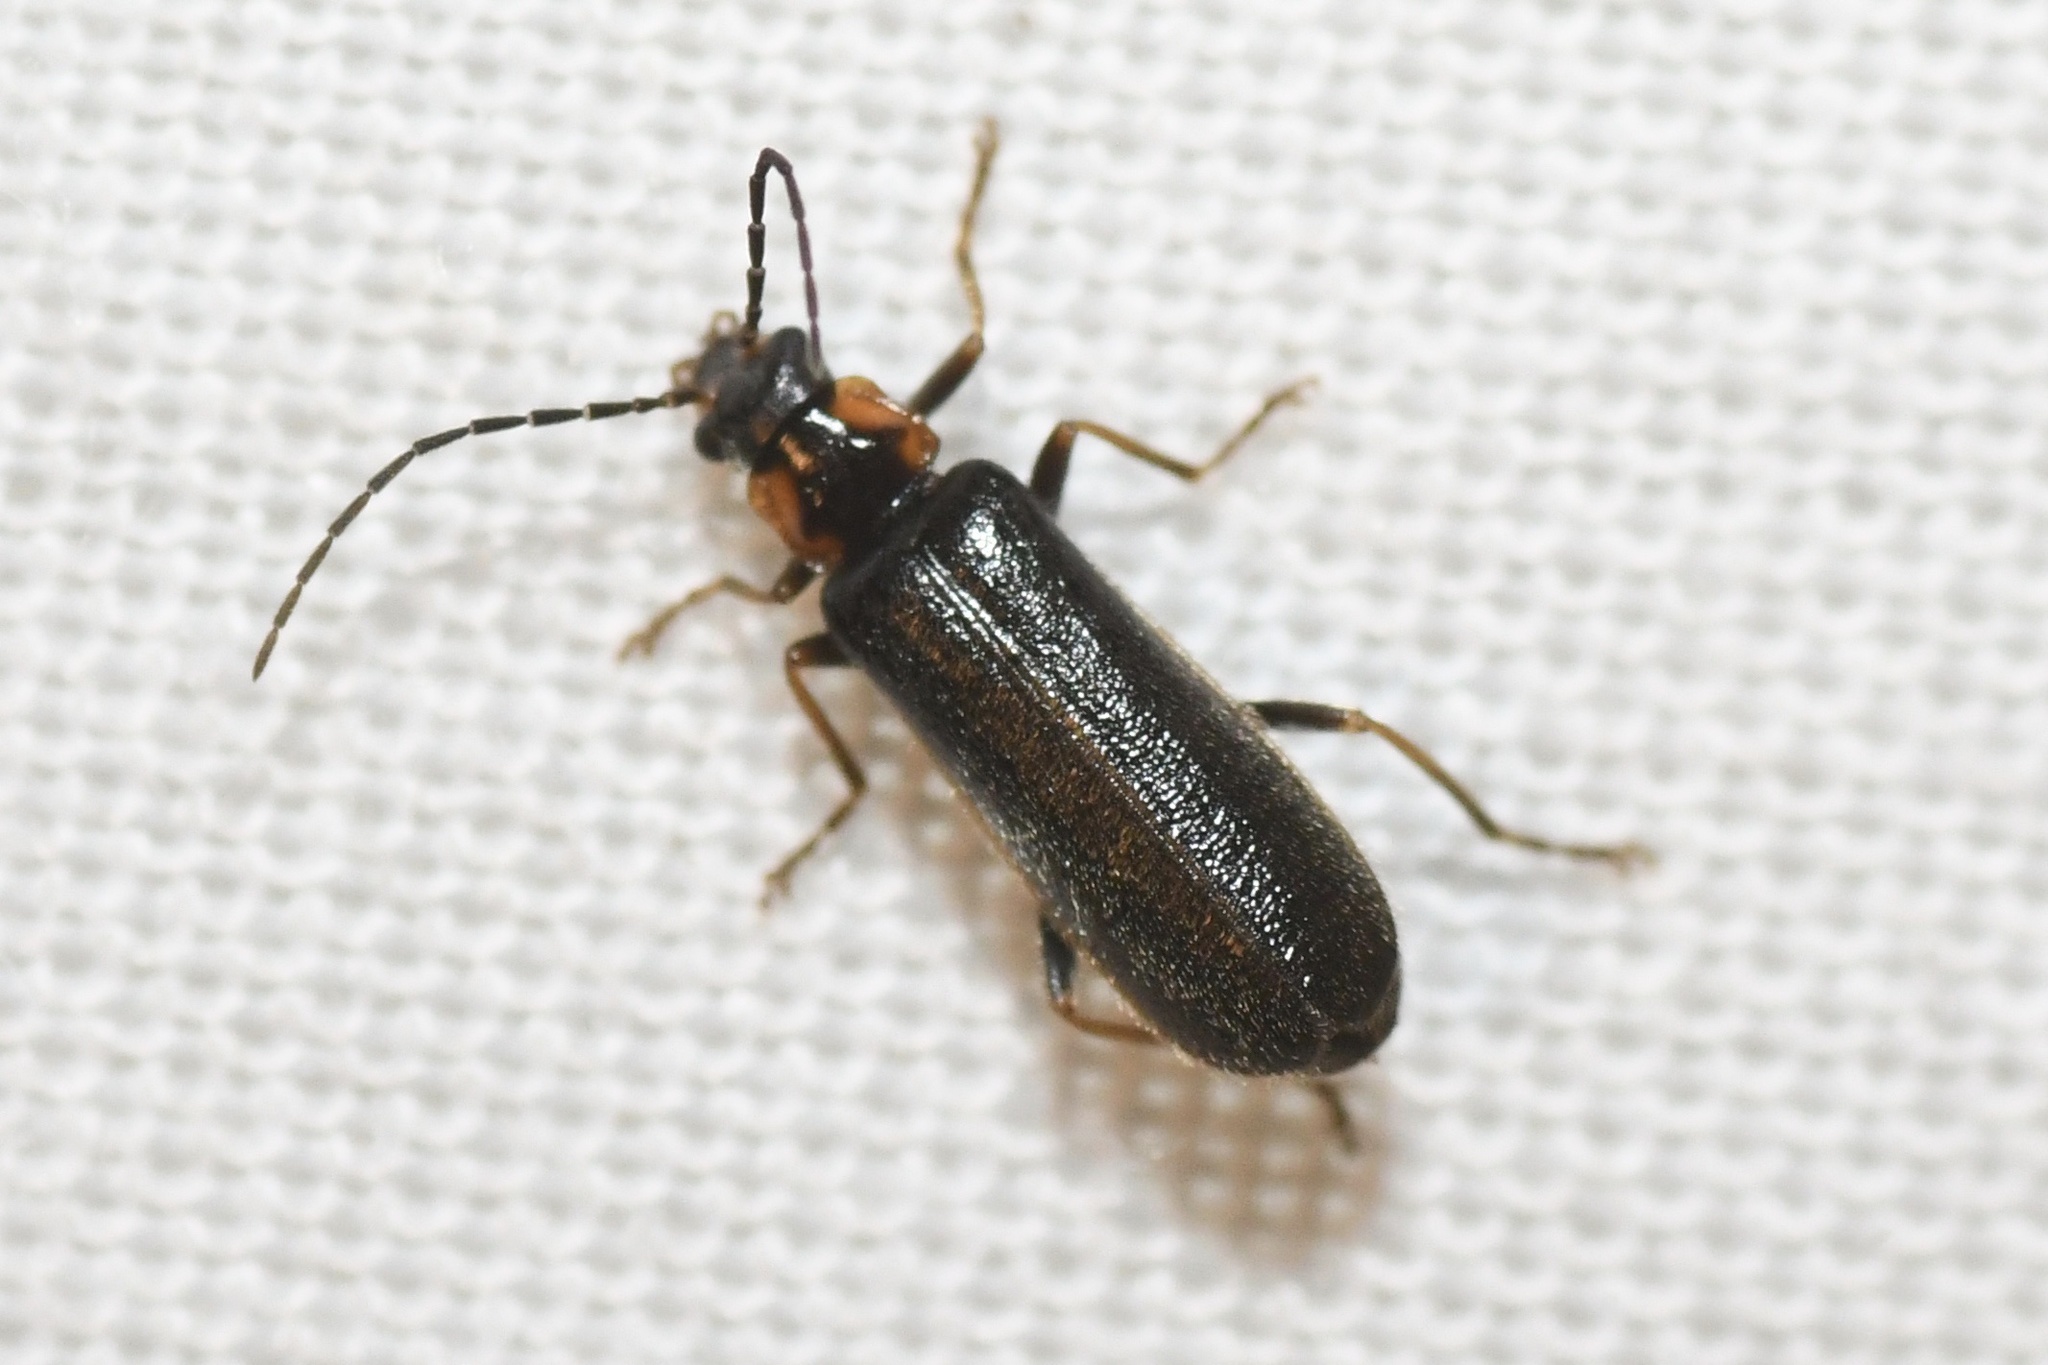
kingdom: Animalia
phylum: Arthropoda
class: Insecta
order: Coleoptera
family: Cantharidae
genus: Rhagonycha
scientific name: Rhagonycha angulata
